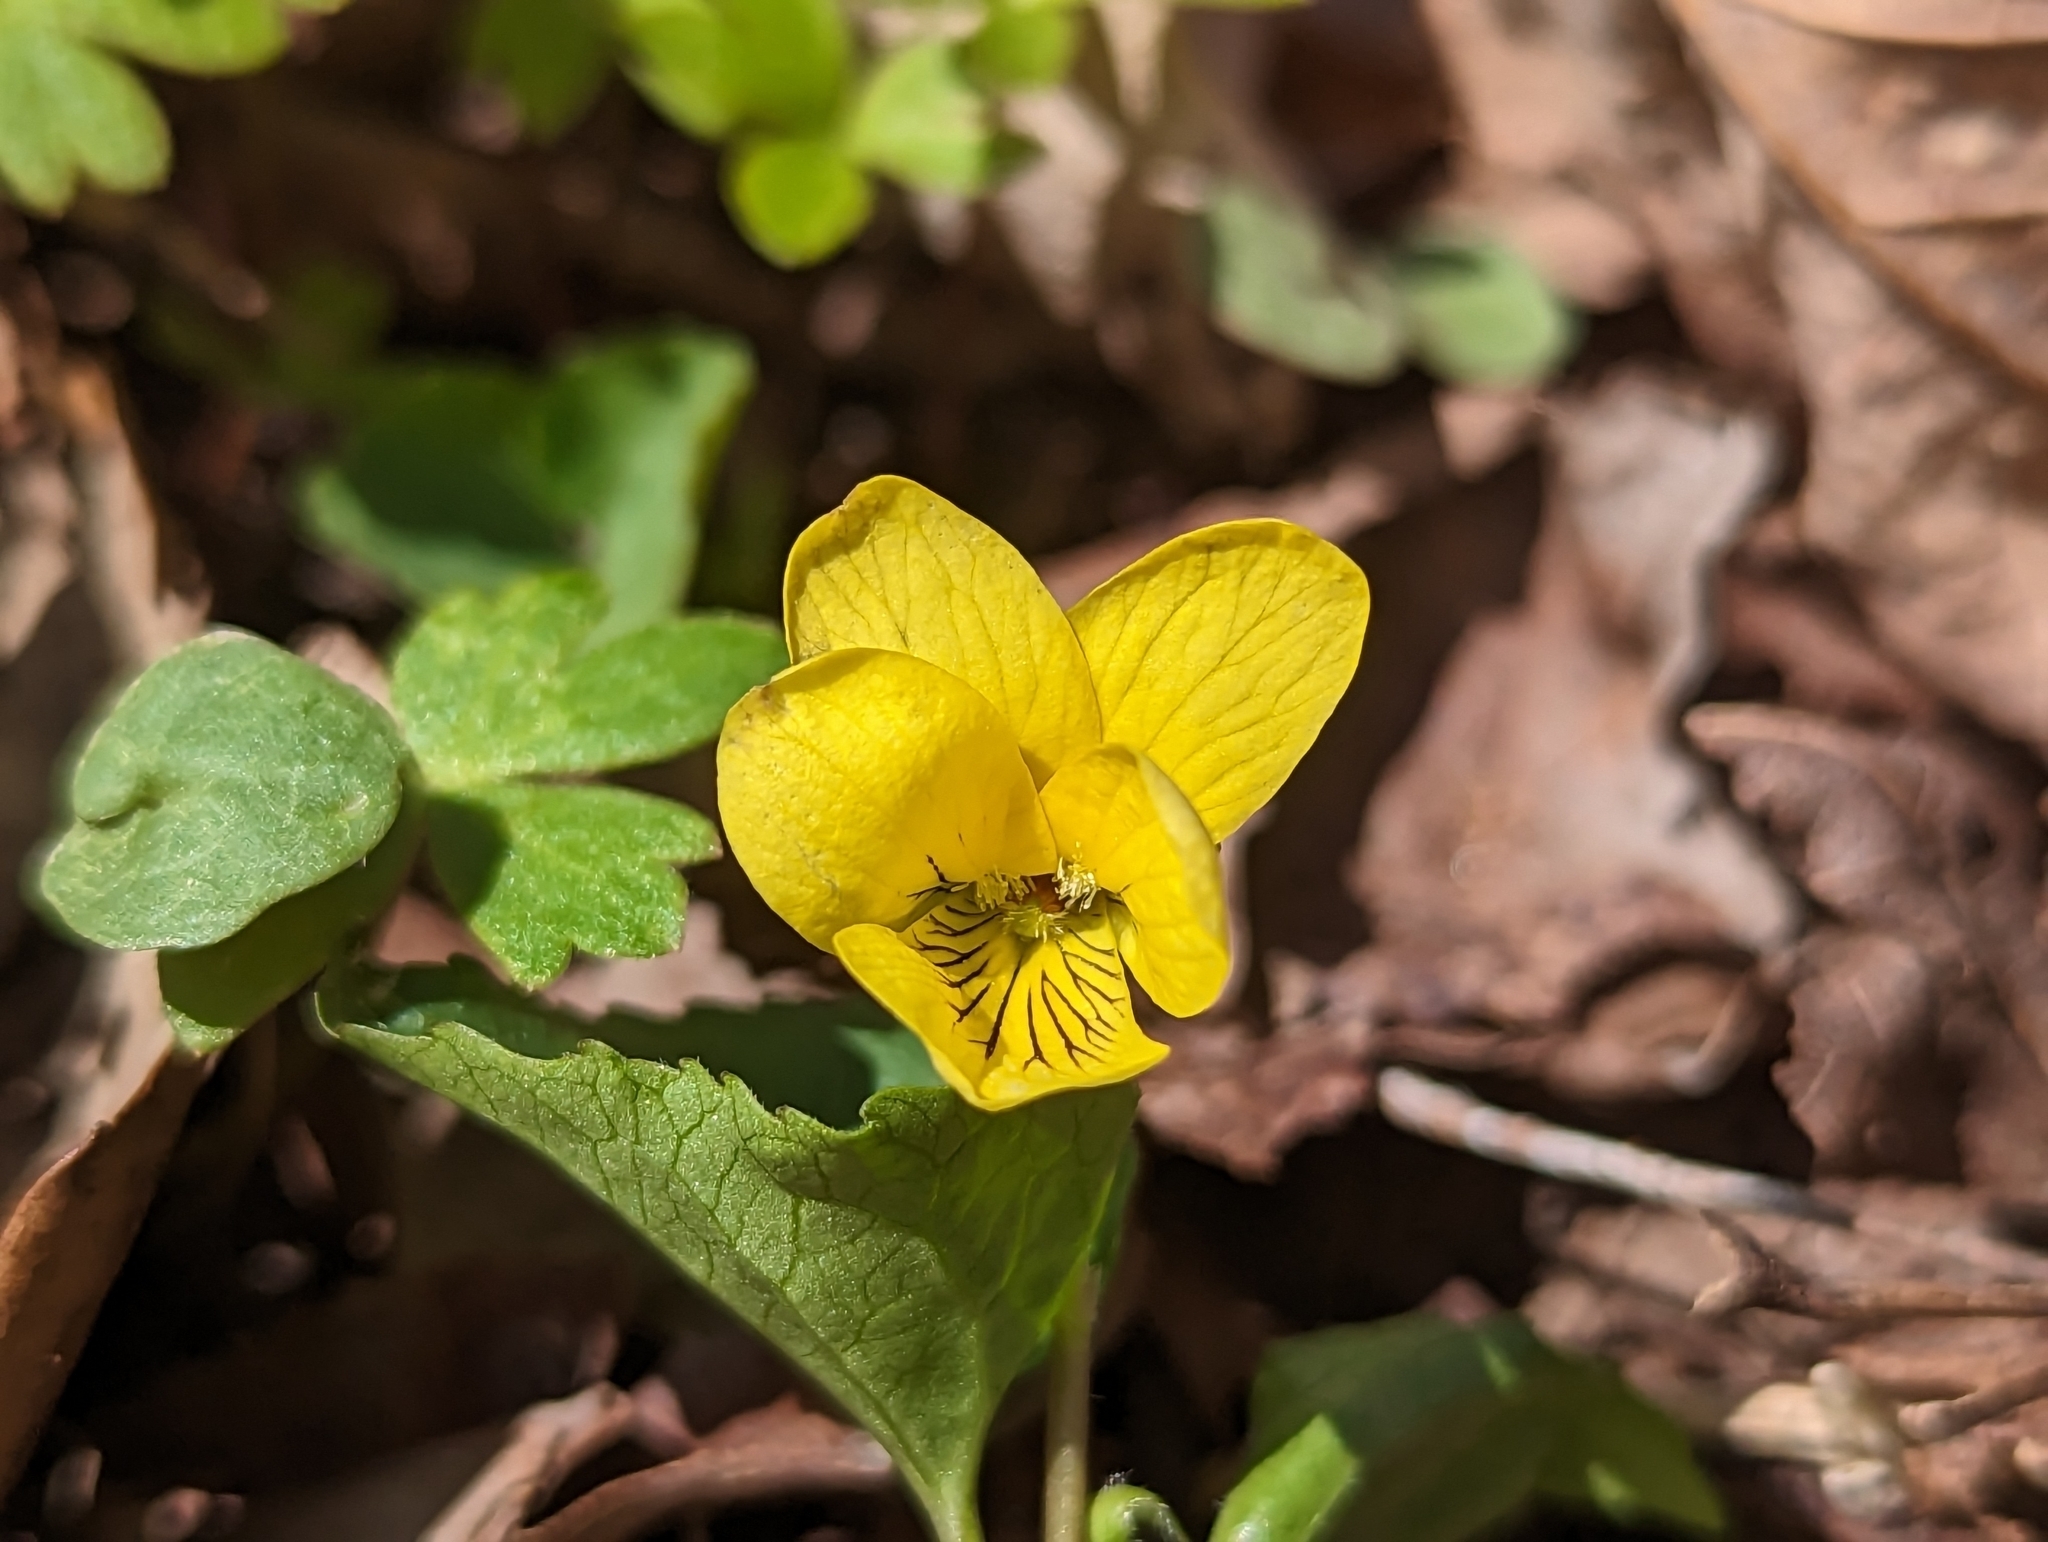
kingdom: Plantae
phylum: Tracheophyta
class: Magnoliopsida
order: Malpighiales
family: Violaceae
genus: Viola
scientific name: Viola eriocarpa
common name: Smooth yellow violet
